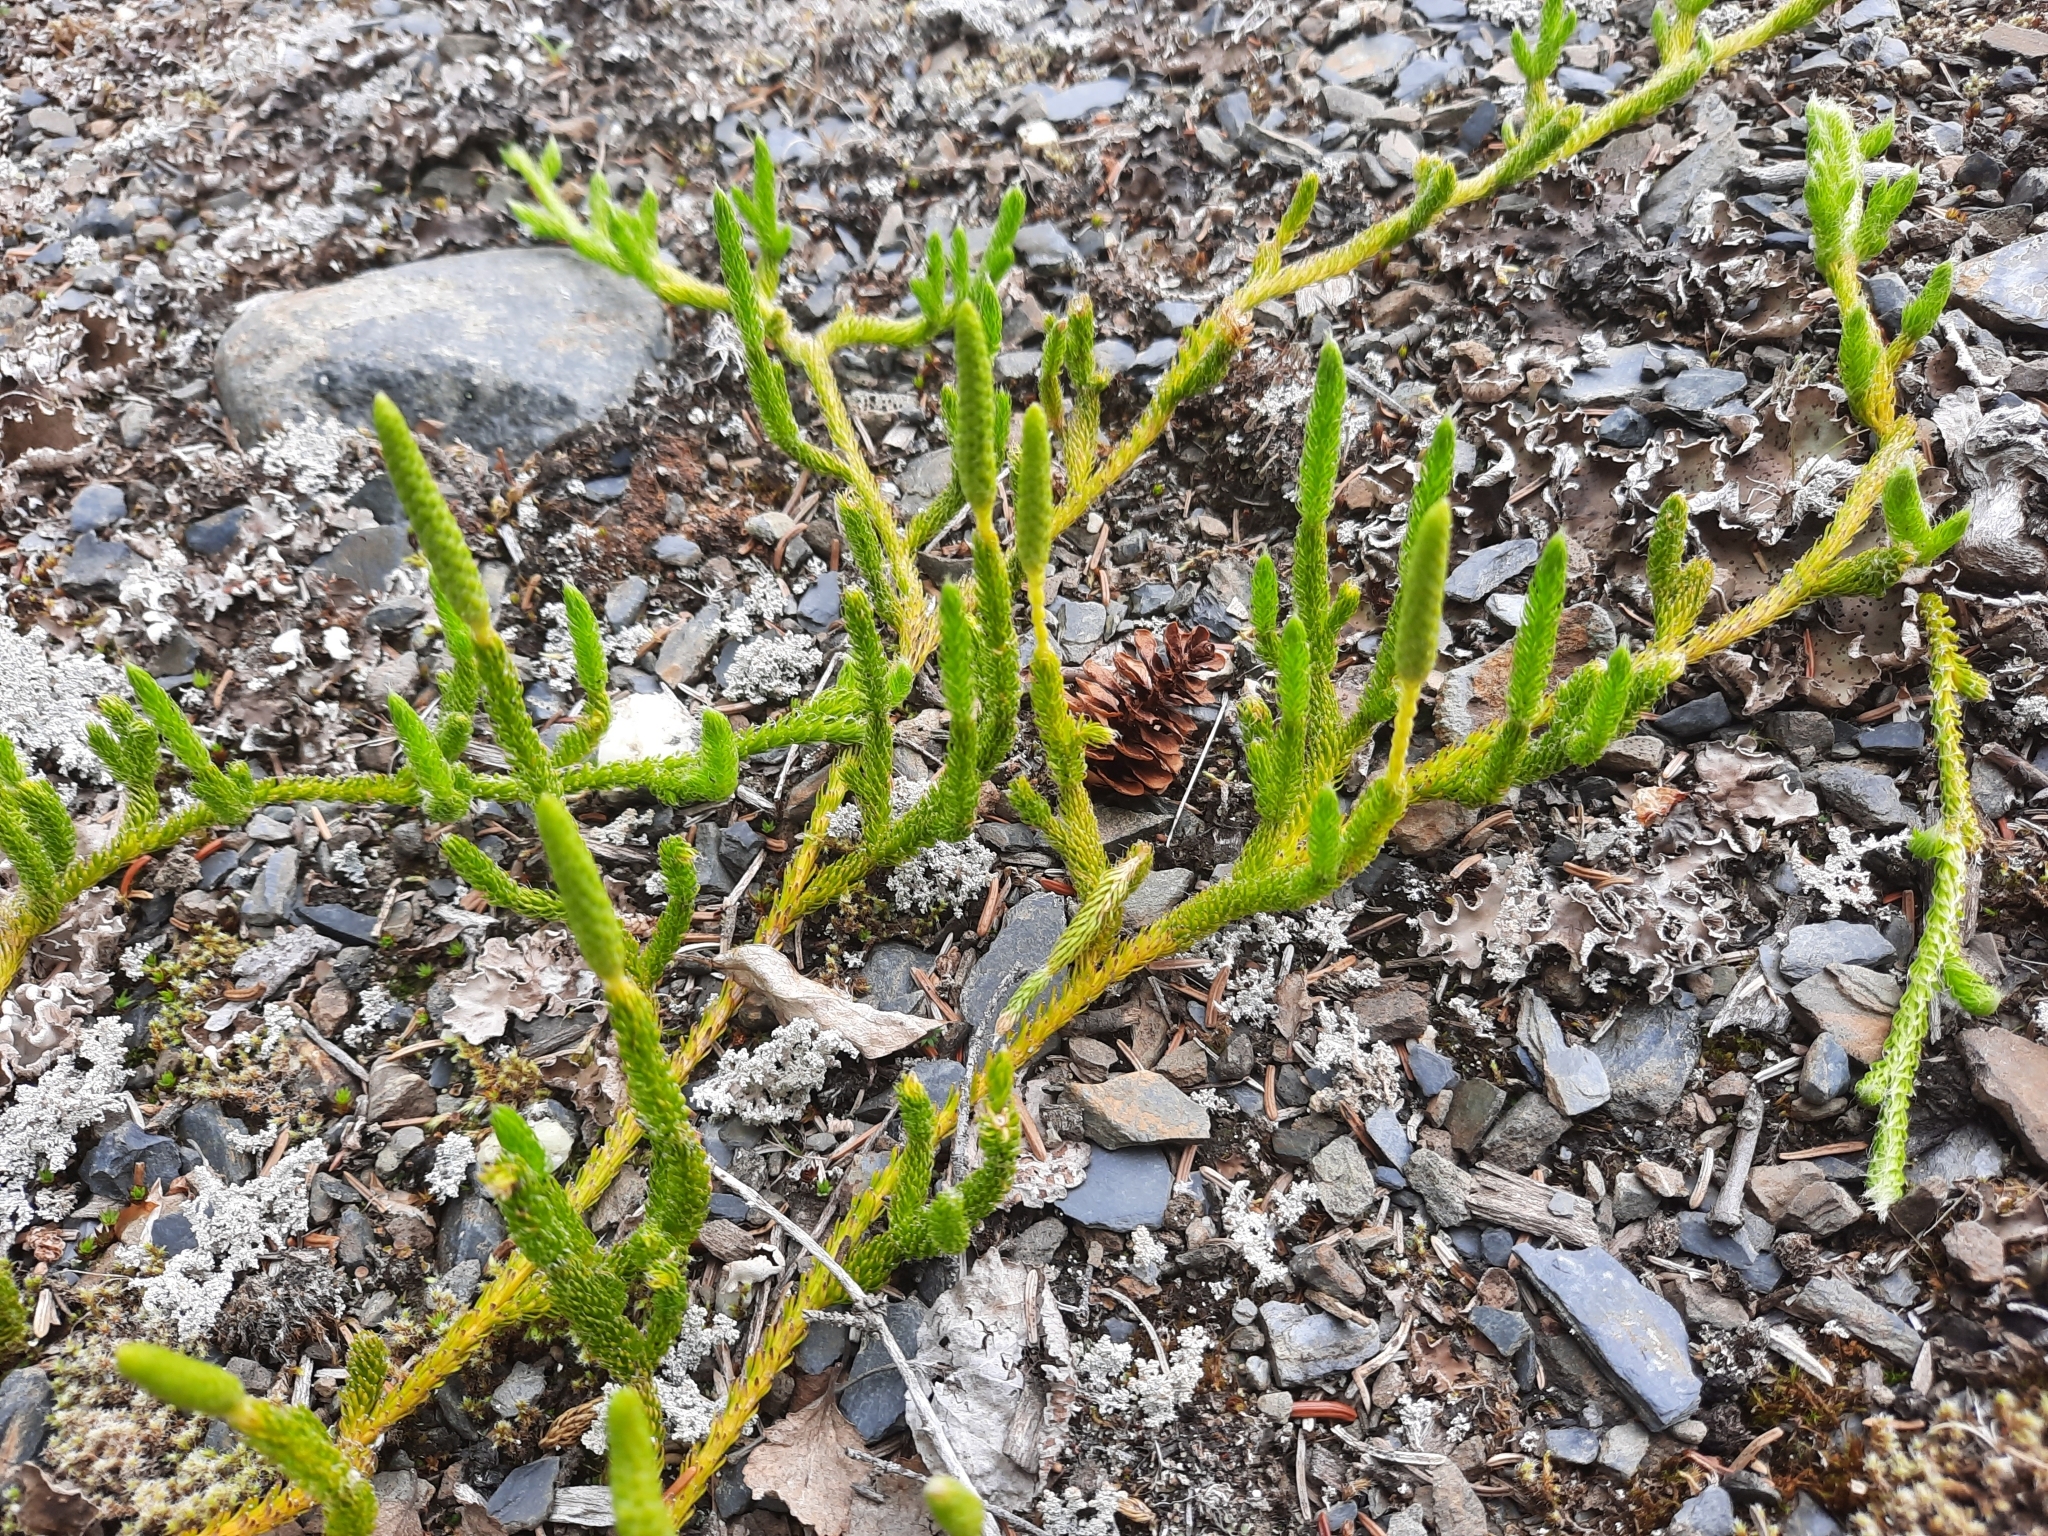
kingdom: Plantae
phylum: Tracheophyta
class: Lycopodiopsida
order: Lycopodiales
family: Lycopodiaceae
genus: Lycopodium
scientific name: Lycopodium lagopus
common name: One-cone clubmoss
